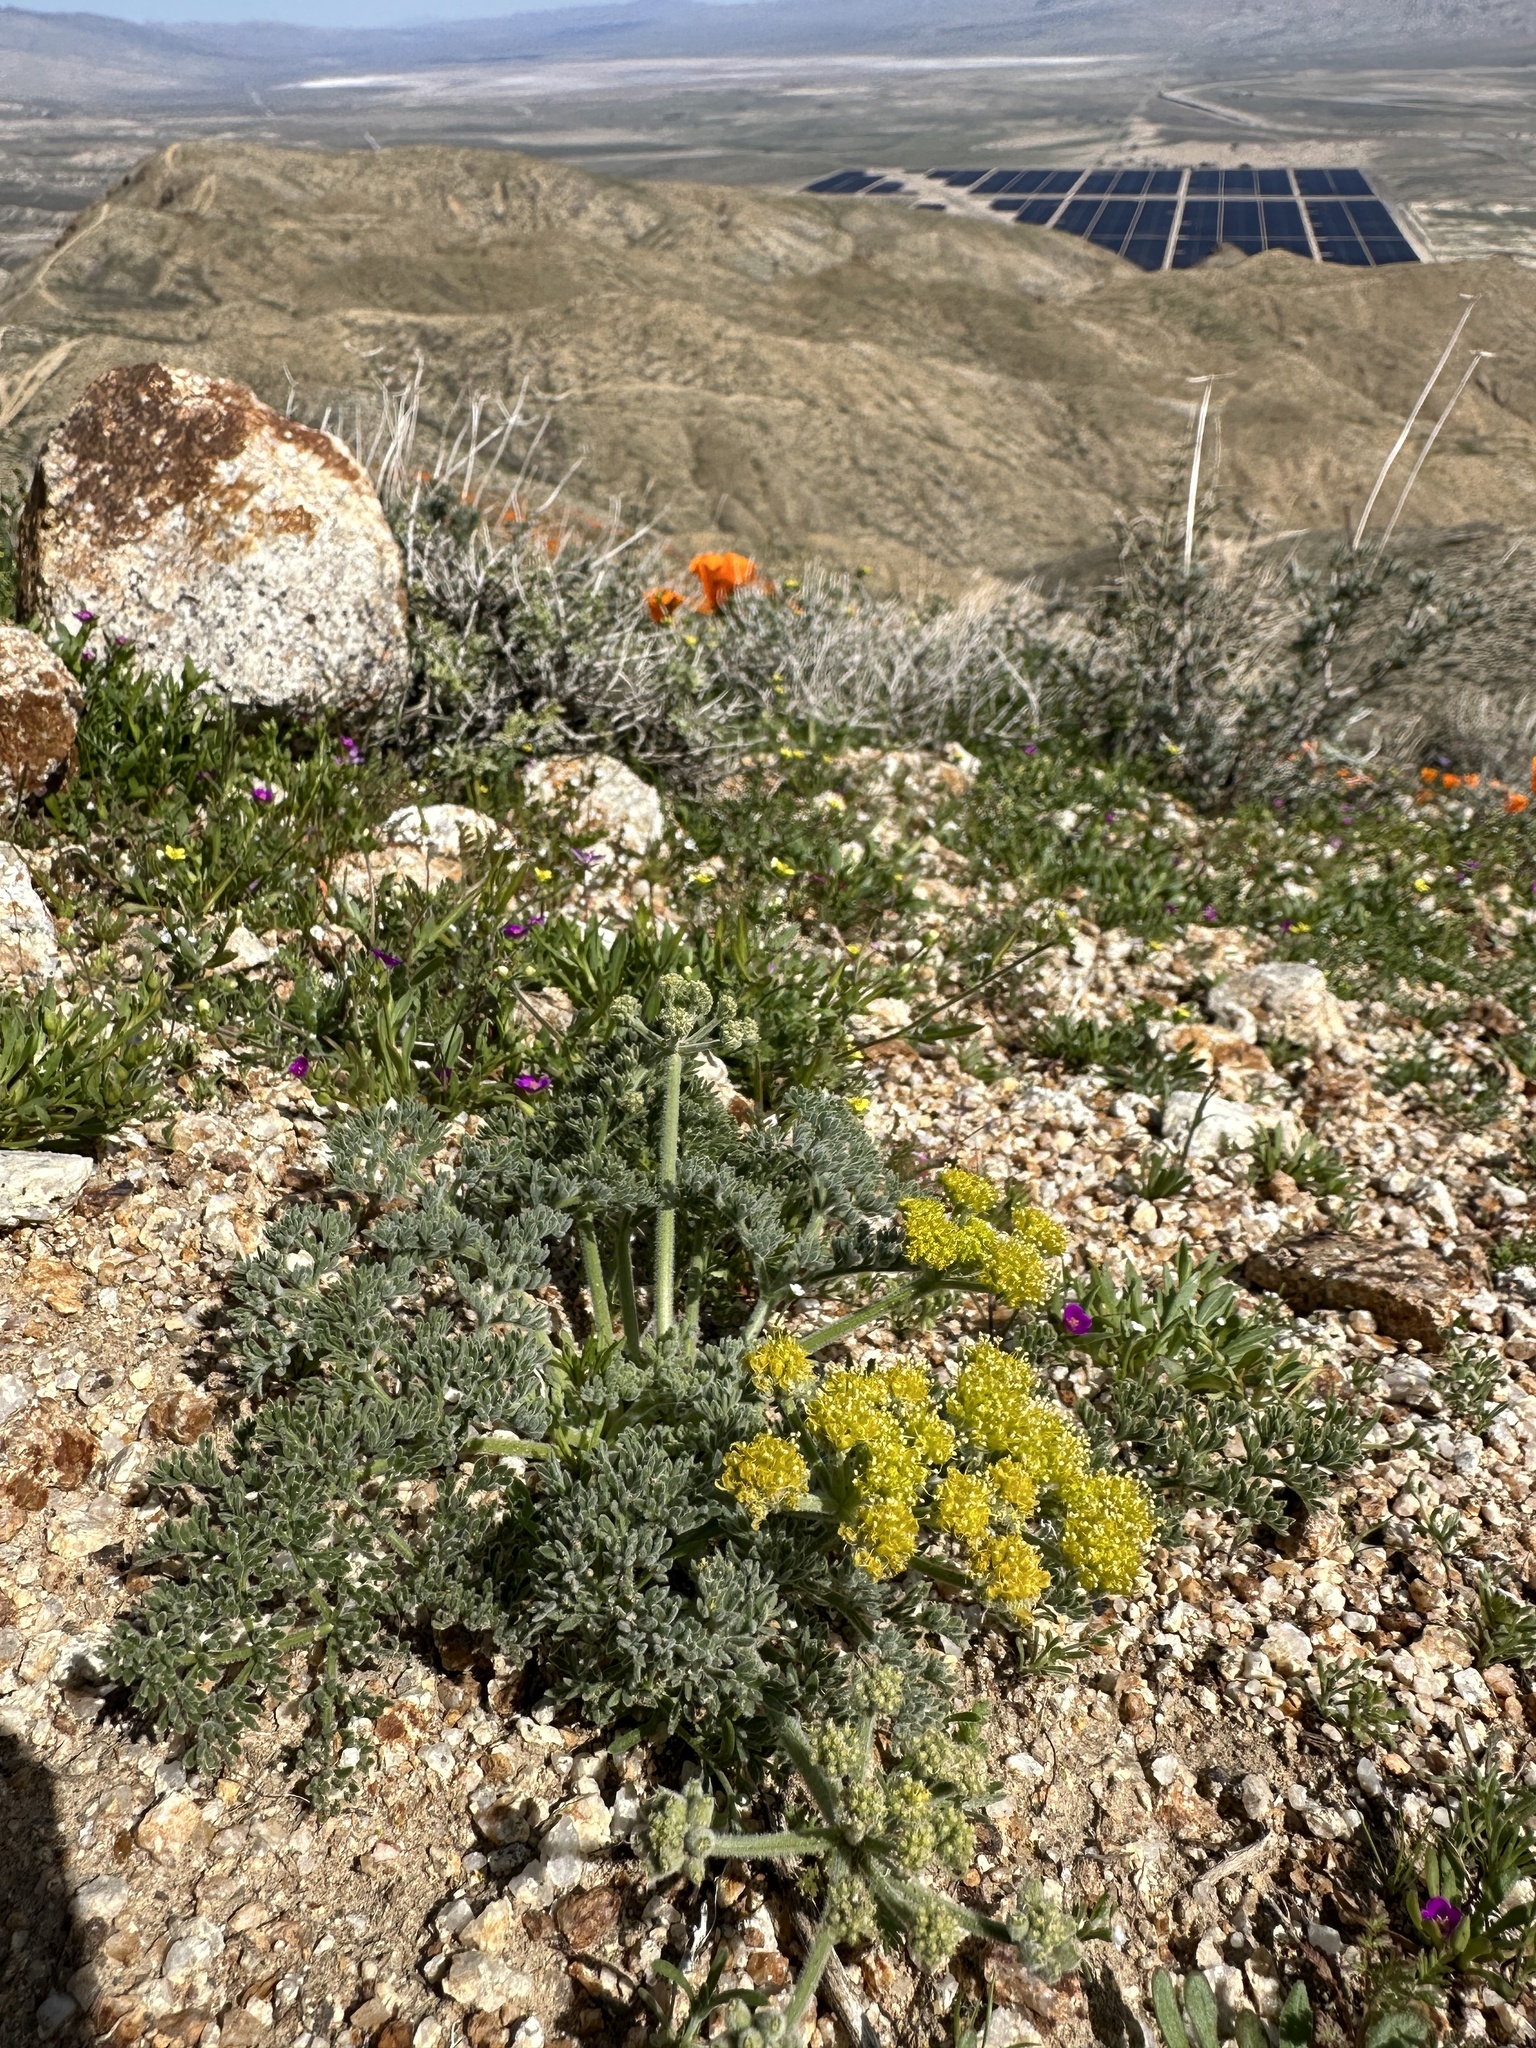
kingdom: Plantae
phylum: Tracheophyta
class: Magnoliopsida
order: Apiales
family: Apiaceae
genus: Lomatium
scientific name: Lomatium mohavense
